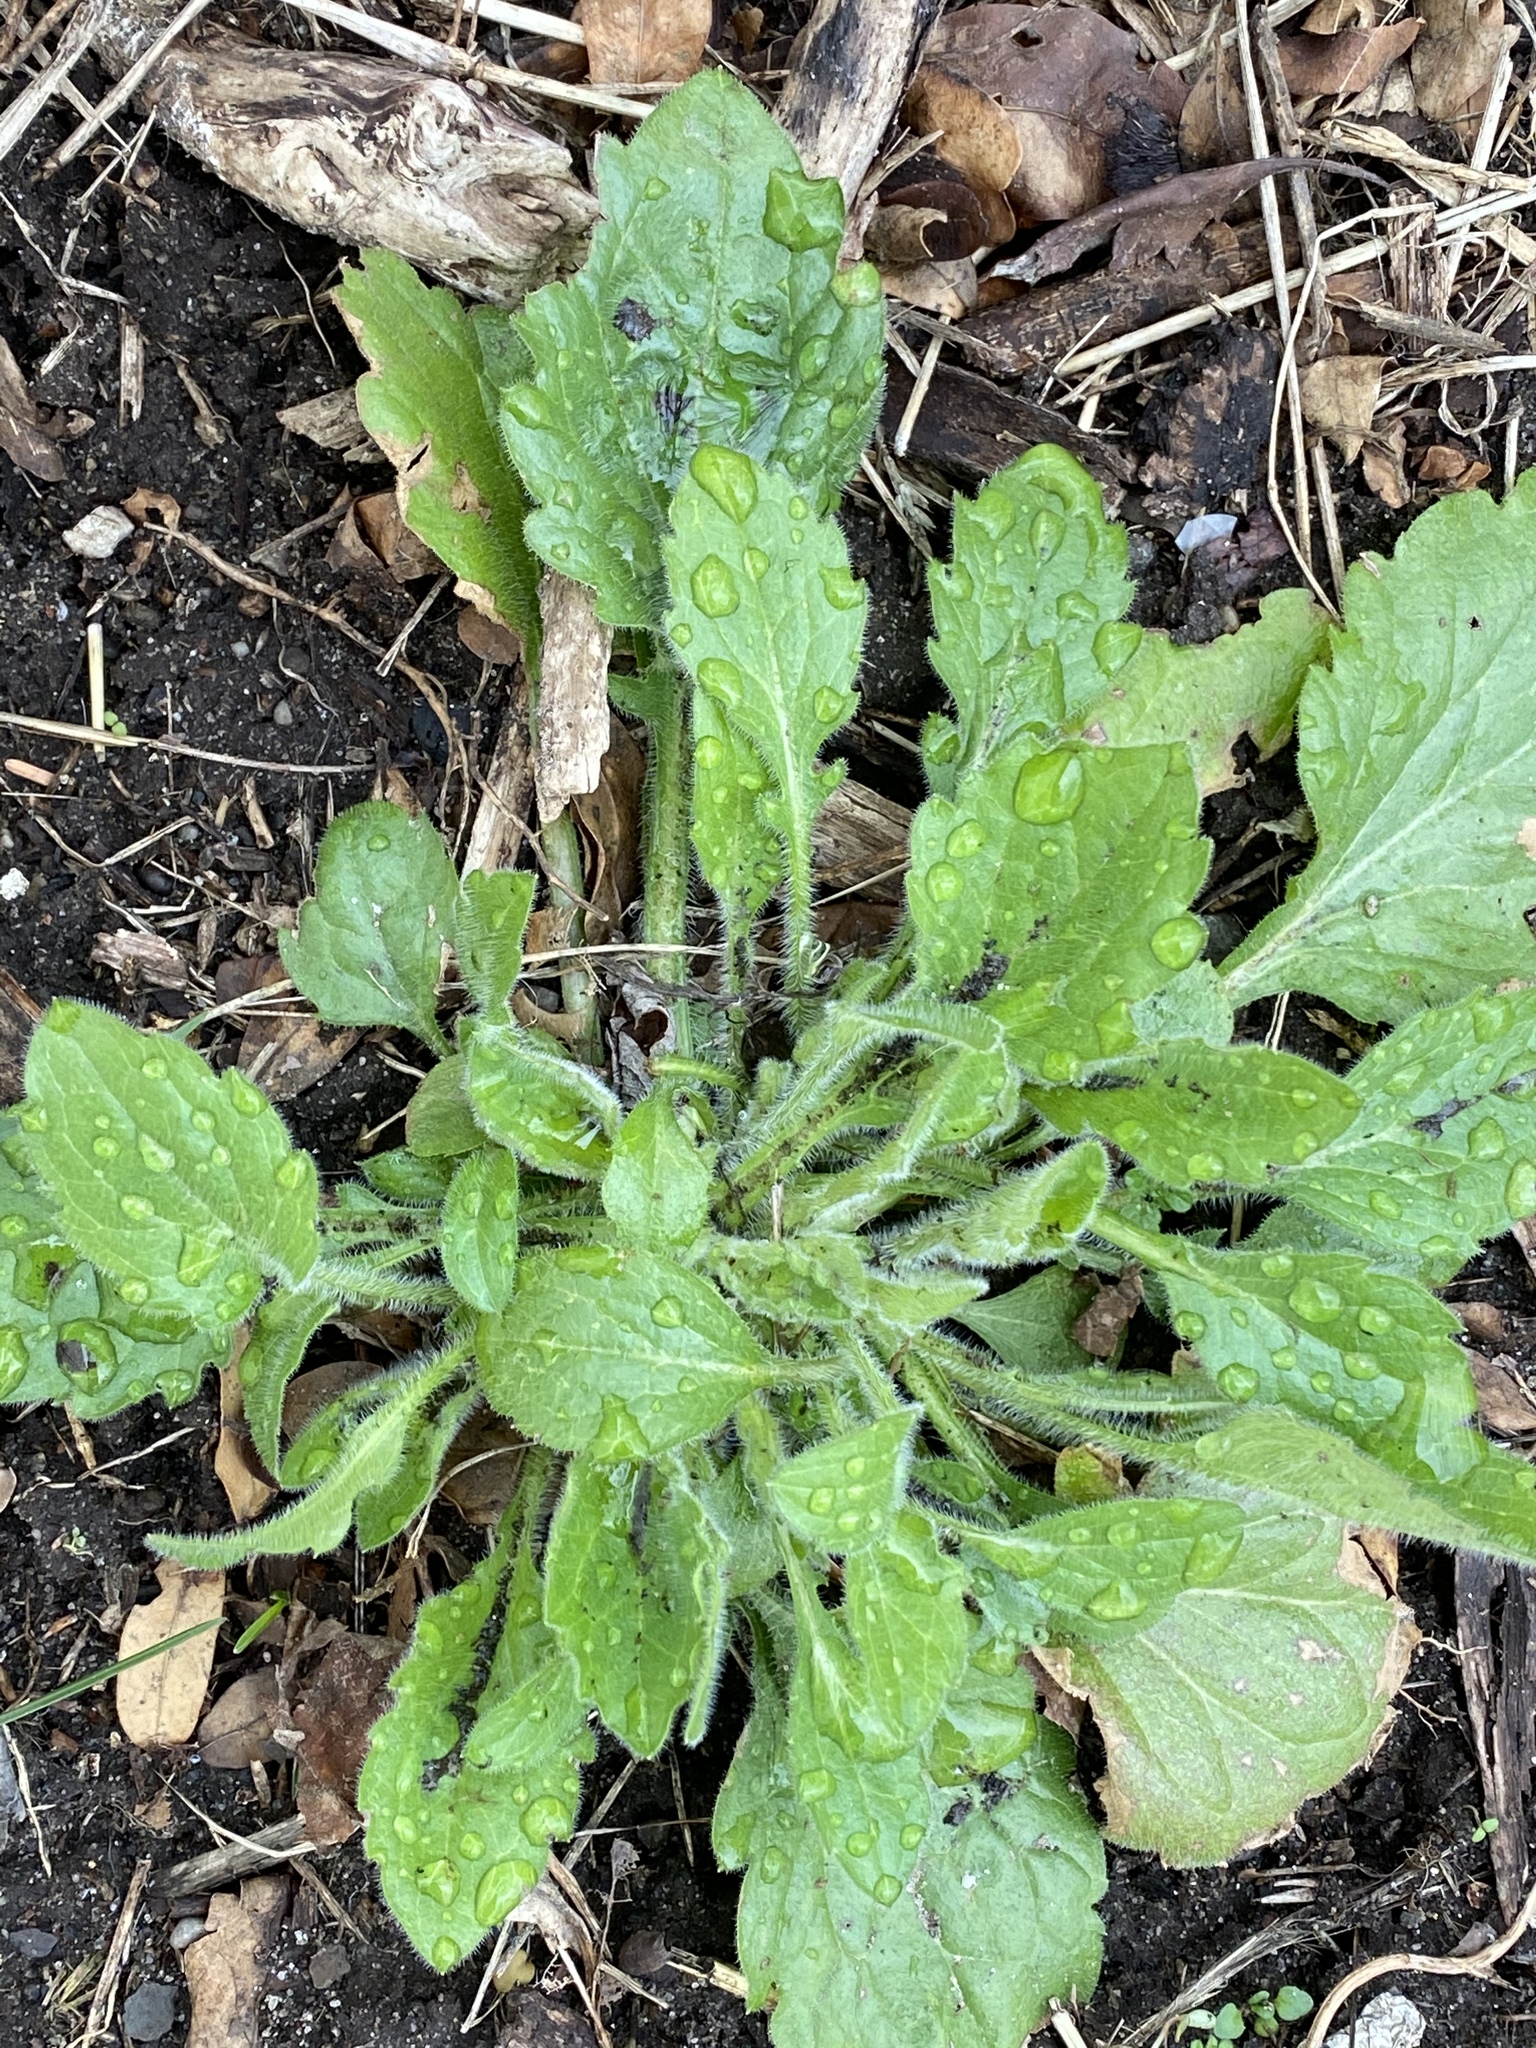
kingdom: Plantae
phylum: Tracheophyta
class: Magnoliopsida
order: Asterales
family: Asteraceae
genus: Erigeron
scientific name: Erigeron canadensis
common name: Canadian fleabane
